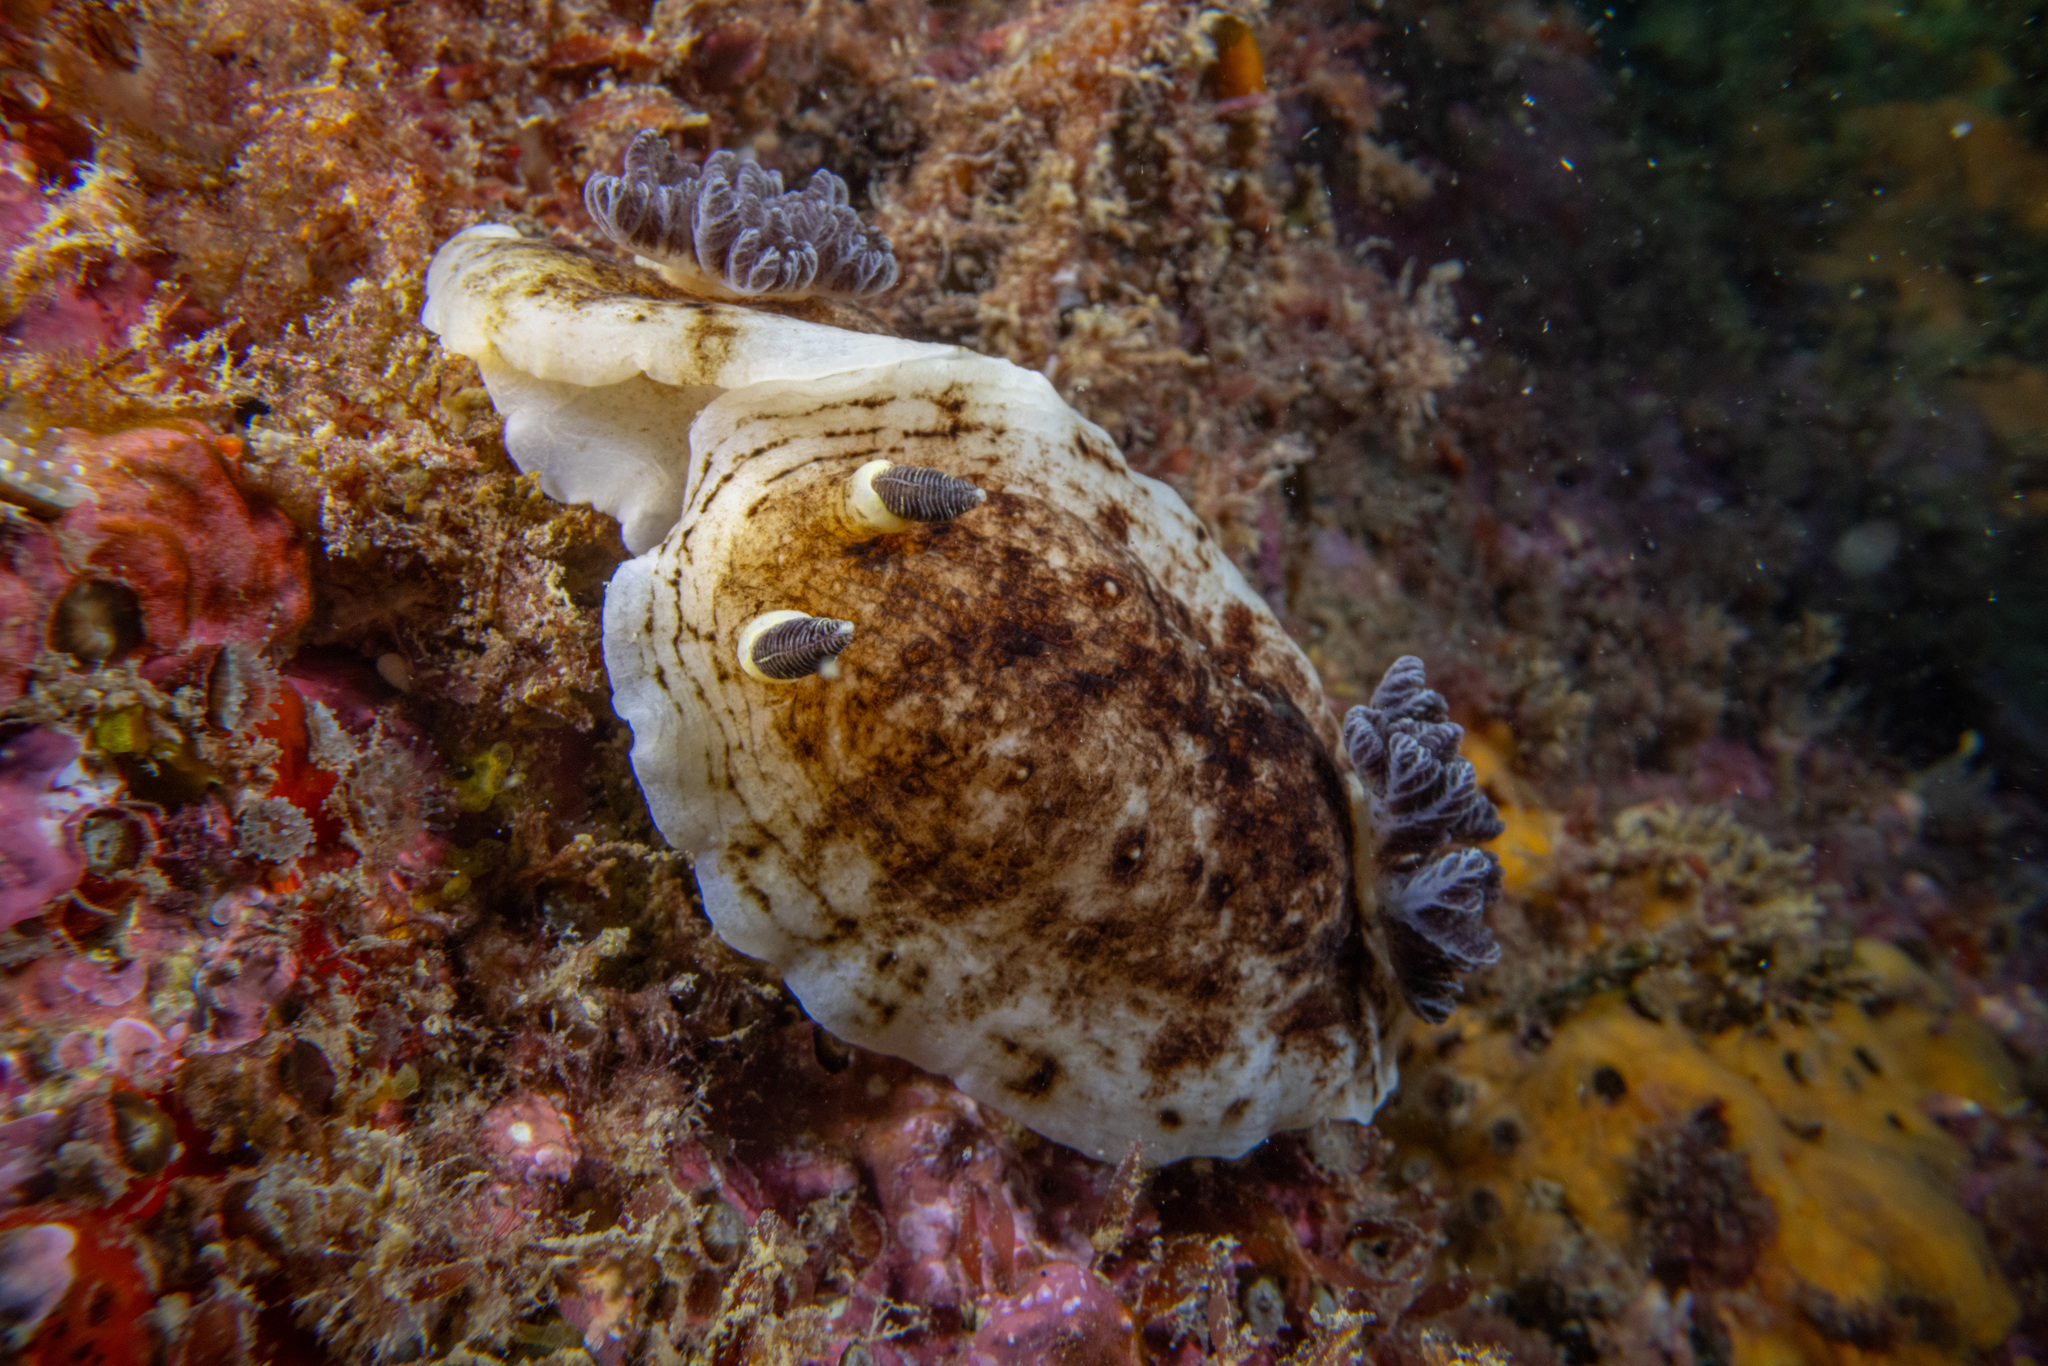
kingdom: Animalia
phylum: Mollusca
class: Gastropoda
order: Nudibranchia
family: Dorididae
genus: Aphelodoris
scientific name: Aphelodoris luctuosa
